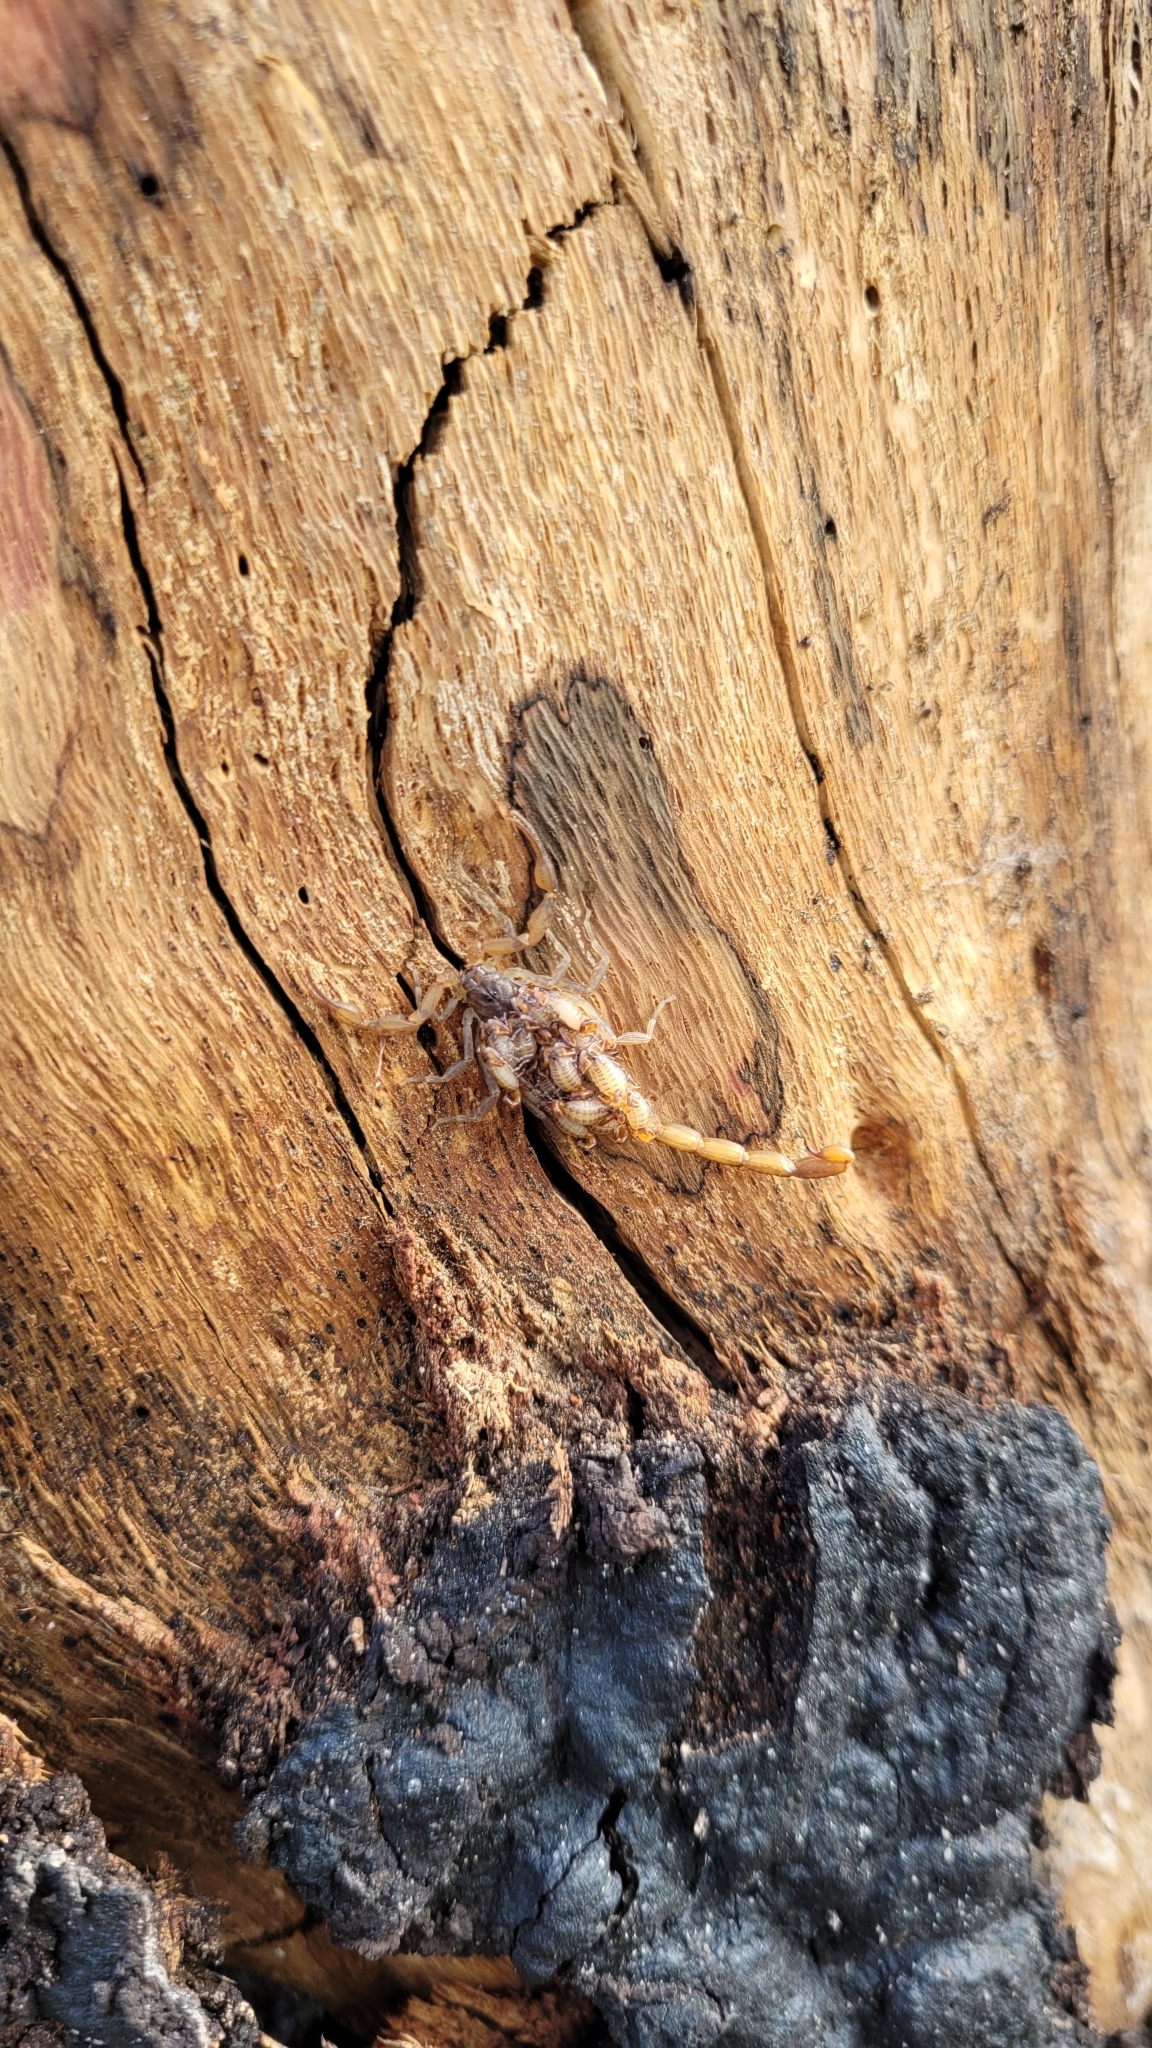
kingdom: Animalia
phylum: Arthropoda
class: Arachnida
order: Scorpiones
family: Buthidae
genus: Centruroides
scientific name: Centruroides hentzi
